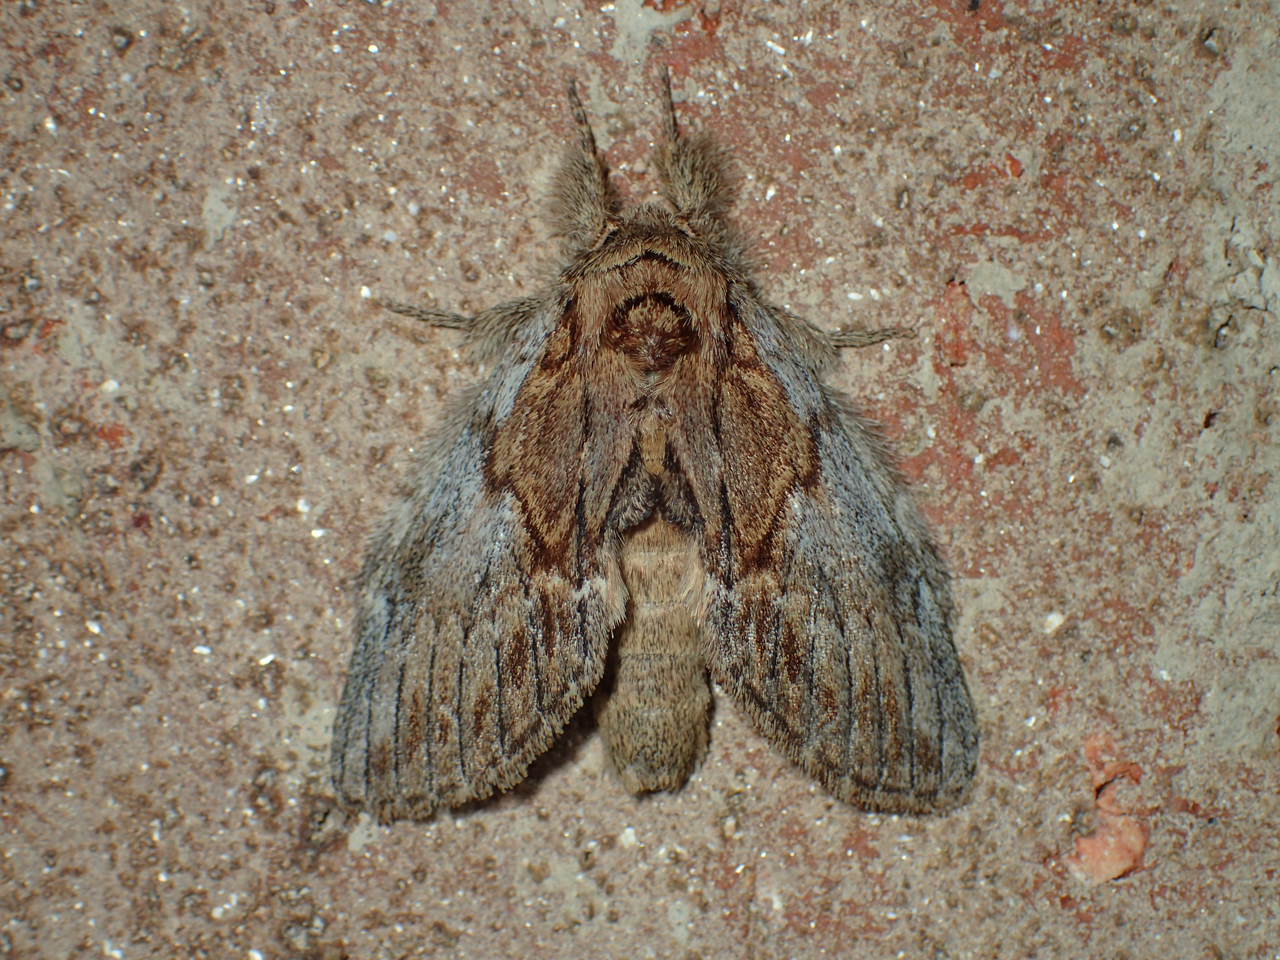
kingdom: Animalia
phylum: Arthropoda
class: Insecta
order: Lepidoptera
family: Notodontidae
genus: Peridea
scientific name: Peridea basitriens
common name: Oval-based prominent
